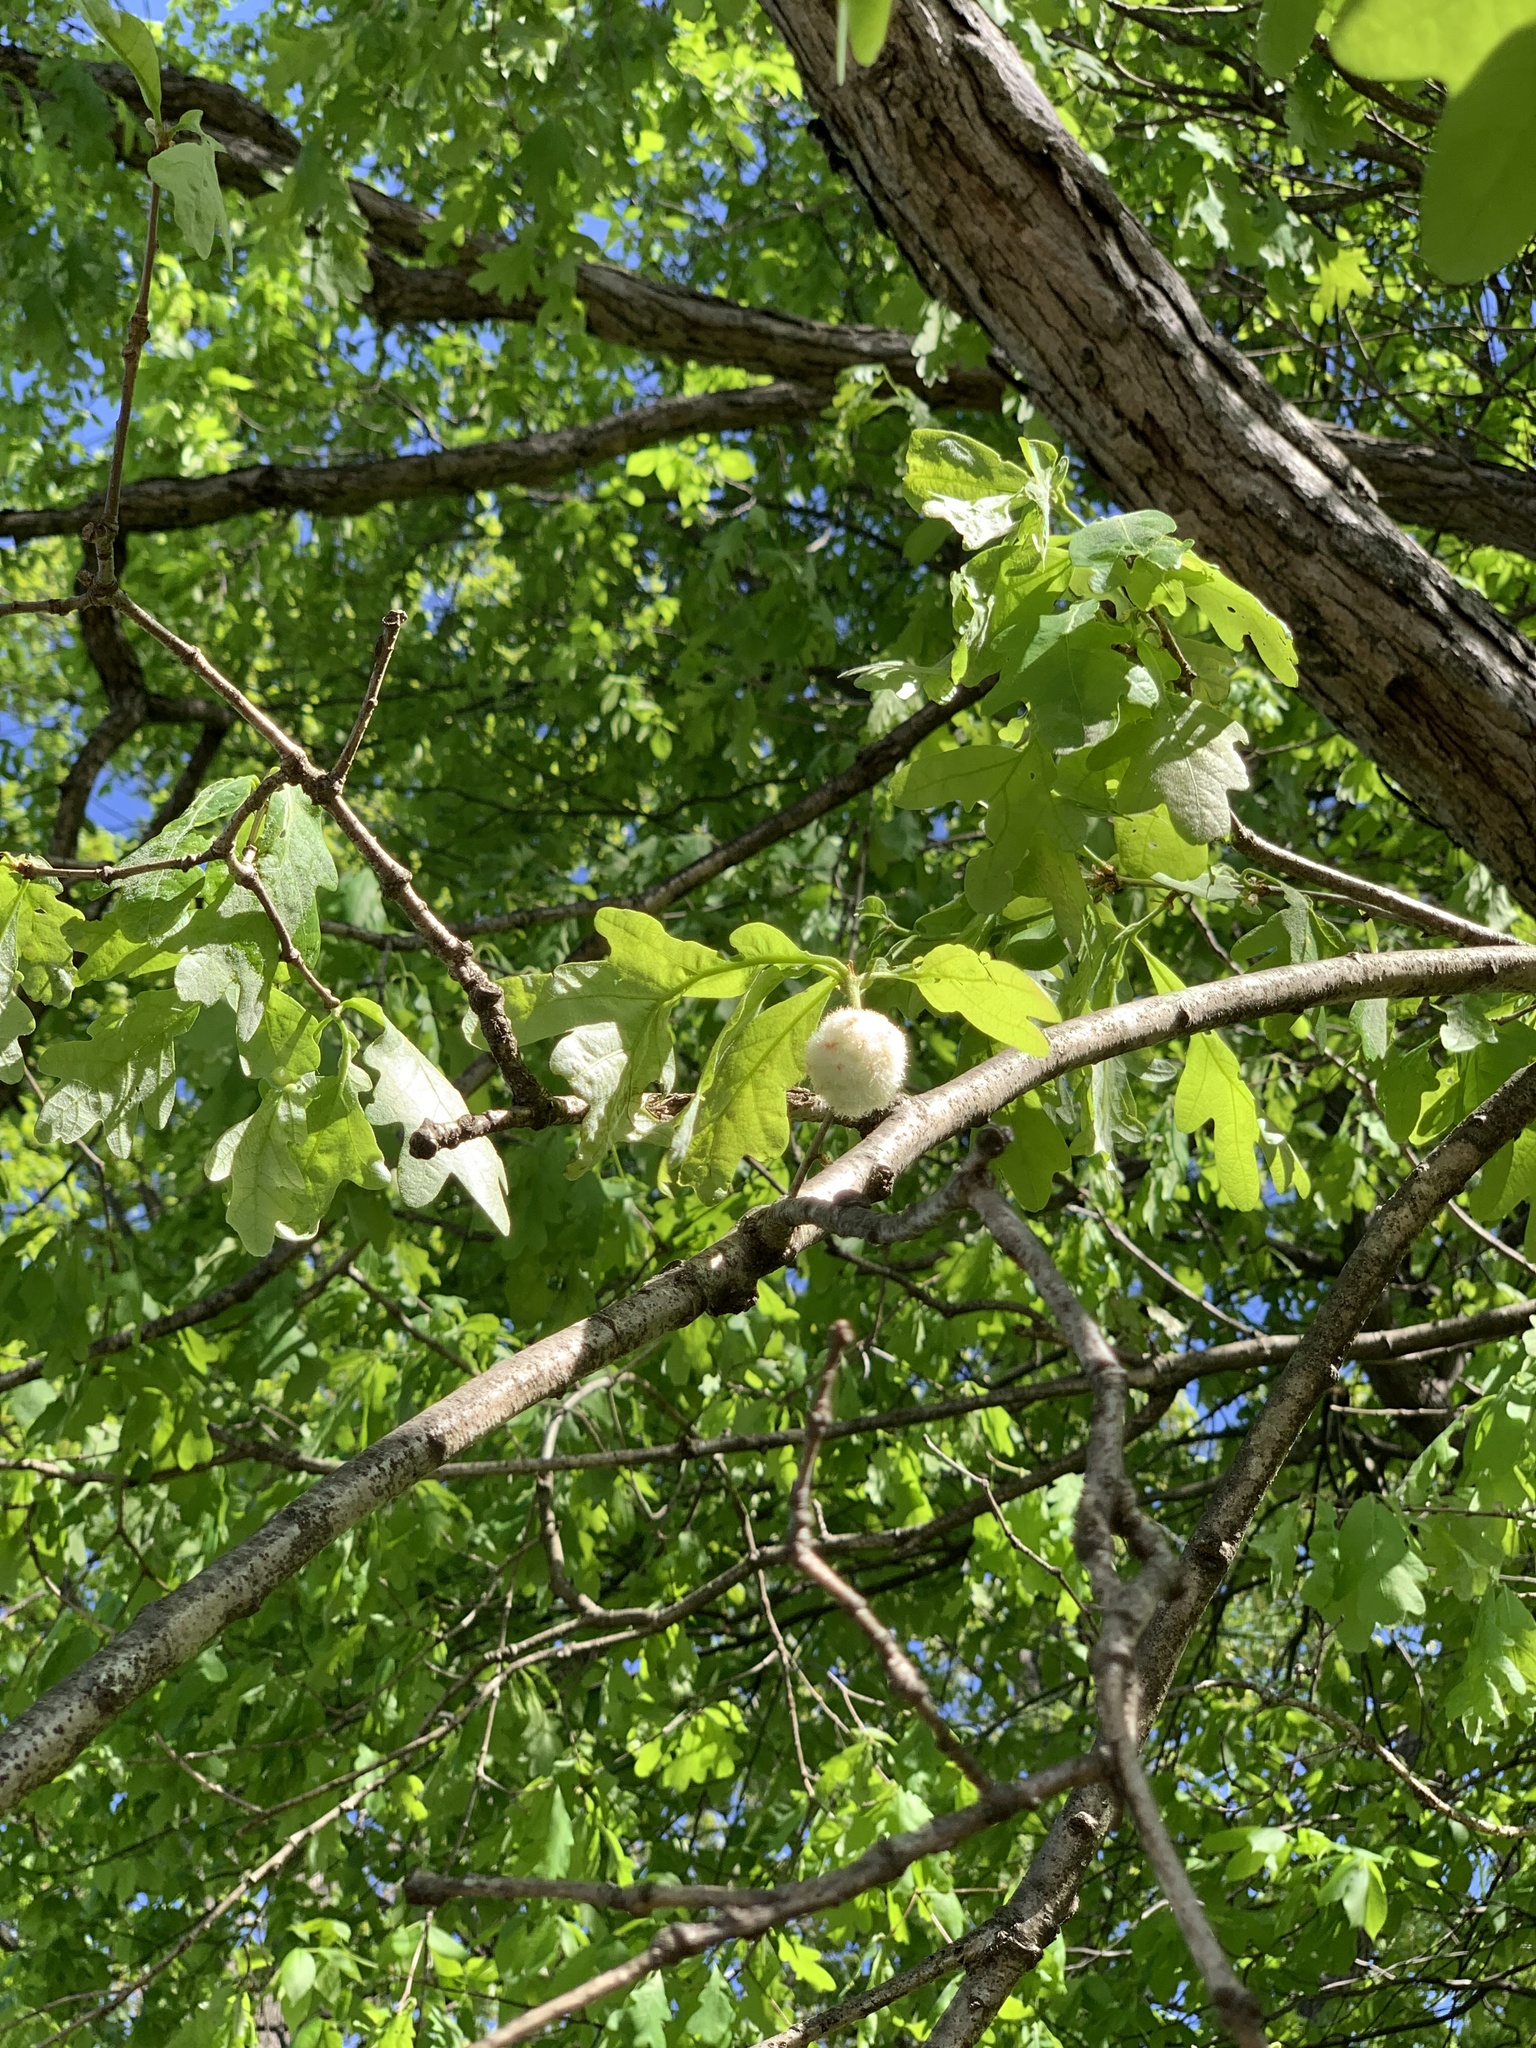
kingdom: Animalia
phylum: Arthropoda
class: Insecta
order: Hymenoptera
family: Cynipidae
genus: Callirhytis
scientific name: Callirhytis
